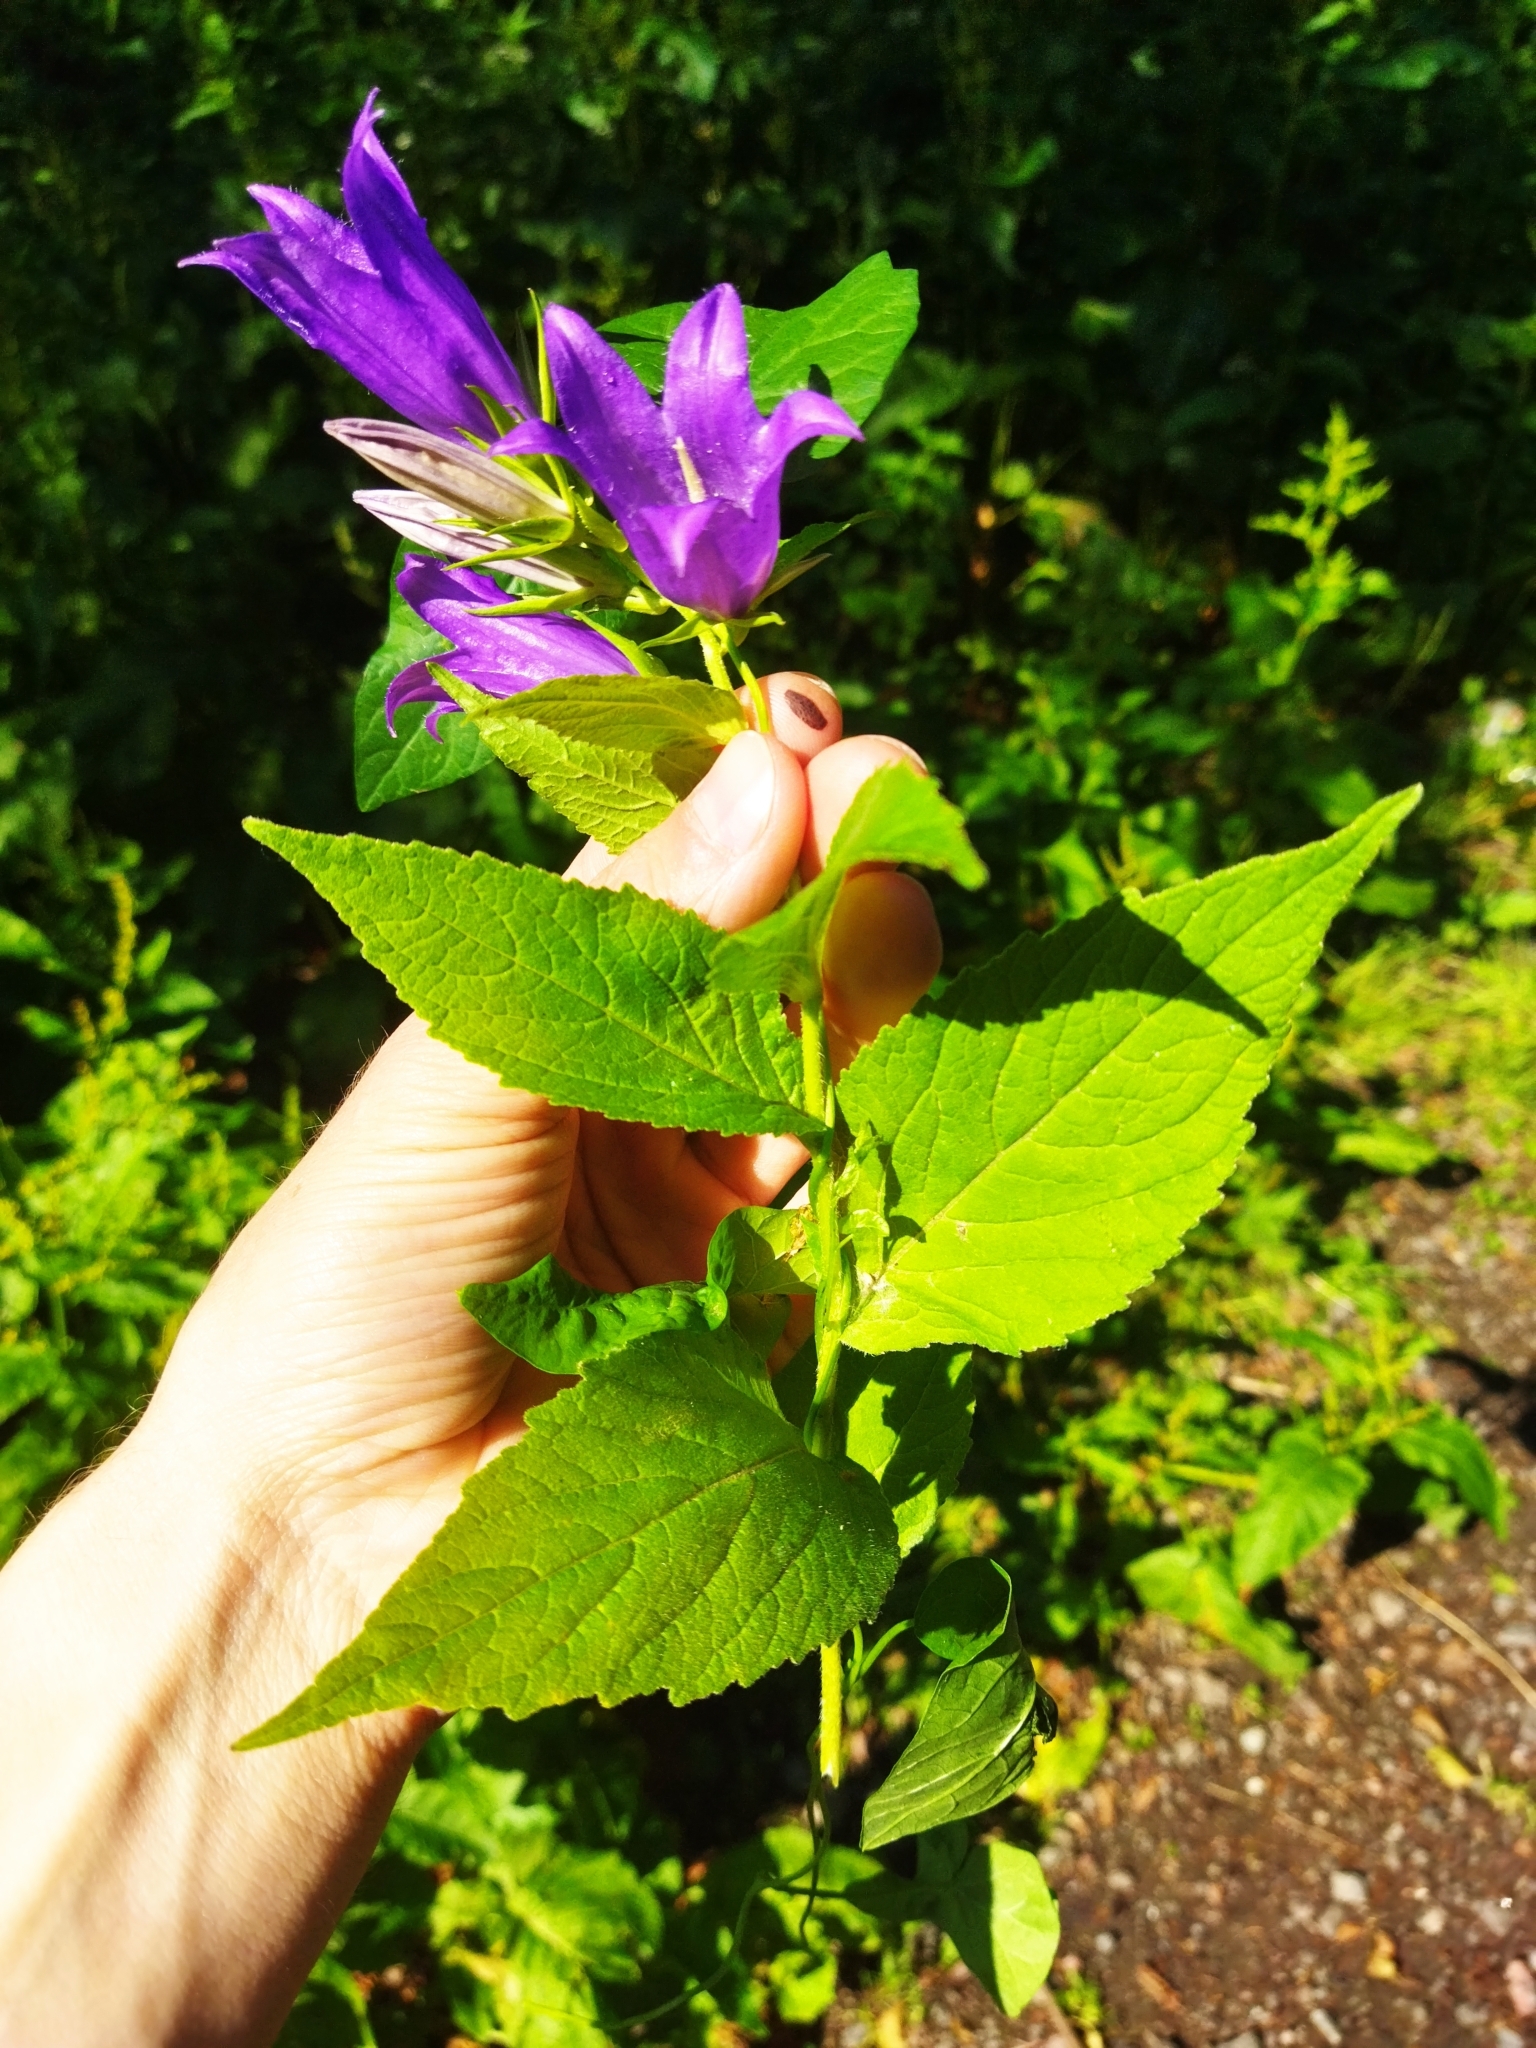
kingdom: Plantae
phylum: Tracheophyta
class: Magnoliopsida
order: Asterales
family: Campanulaceae
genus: Campanula
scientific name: Campanula latifolia
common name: Giant bellflower
